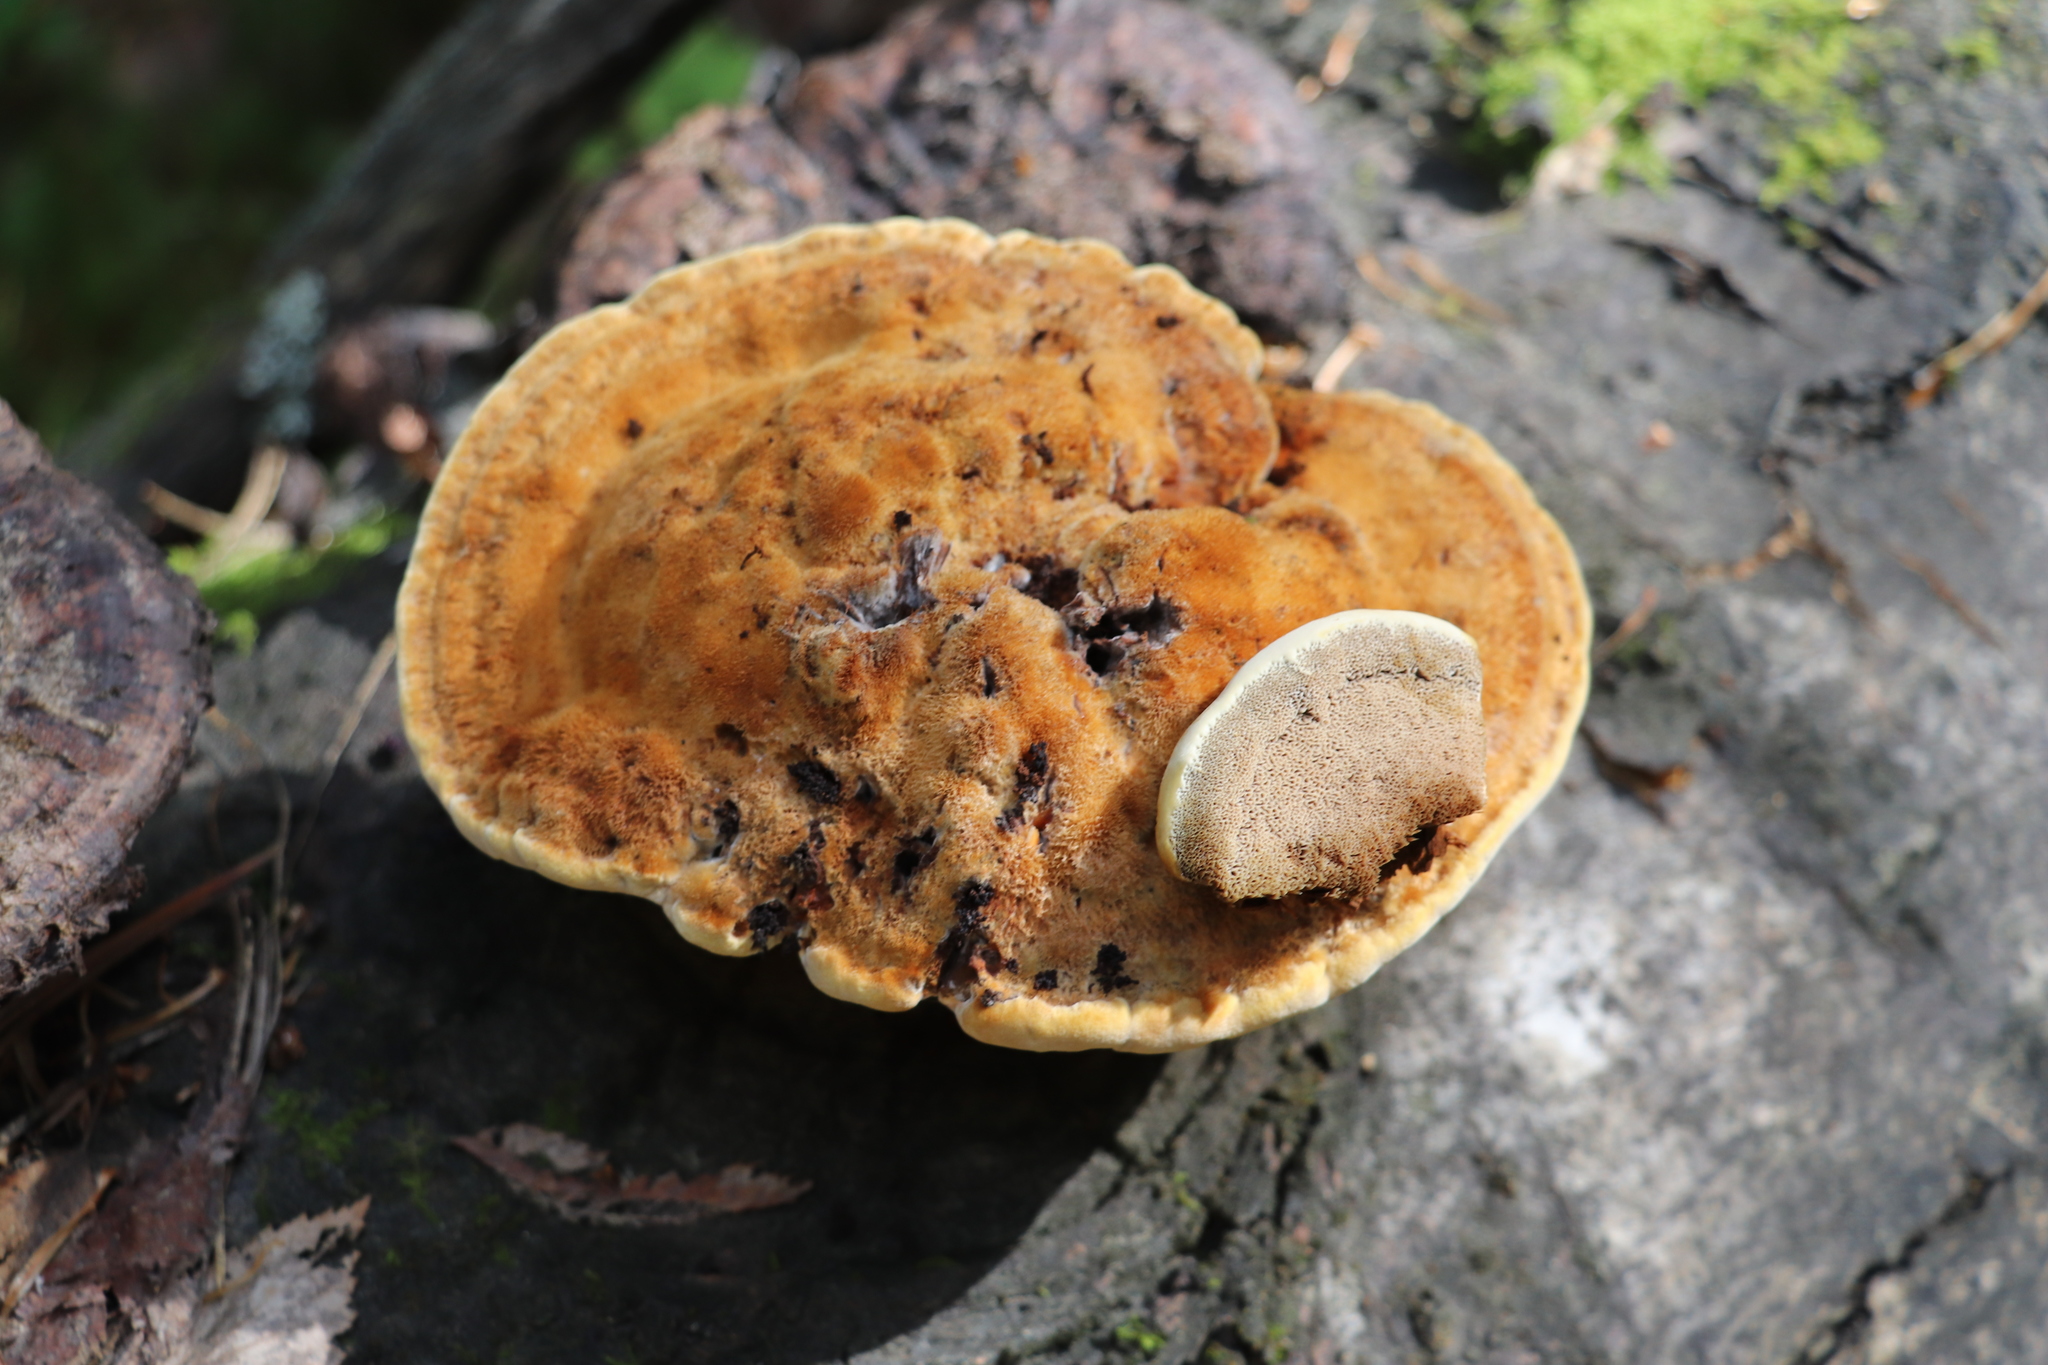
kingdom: Fungi
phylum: Basidiomycota
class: Agaricomycetes
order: Hymenochaetales
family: Hymenochaetaceae
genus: Inocutis
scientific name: Inocutis rheades
